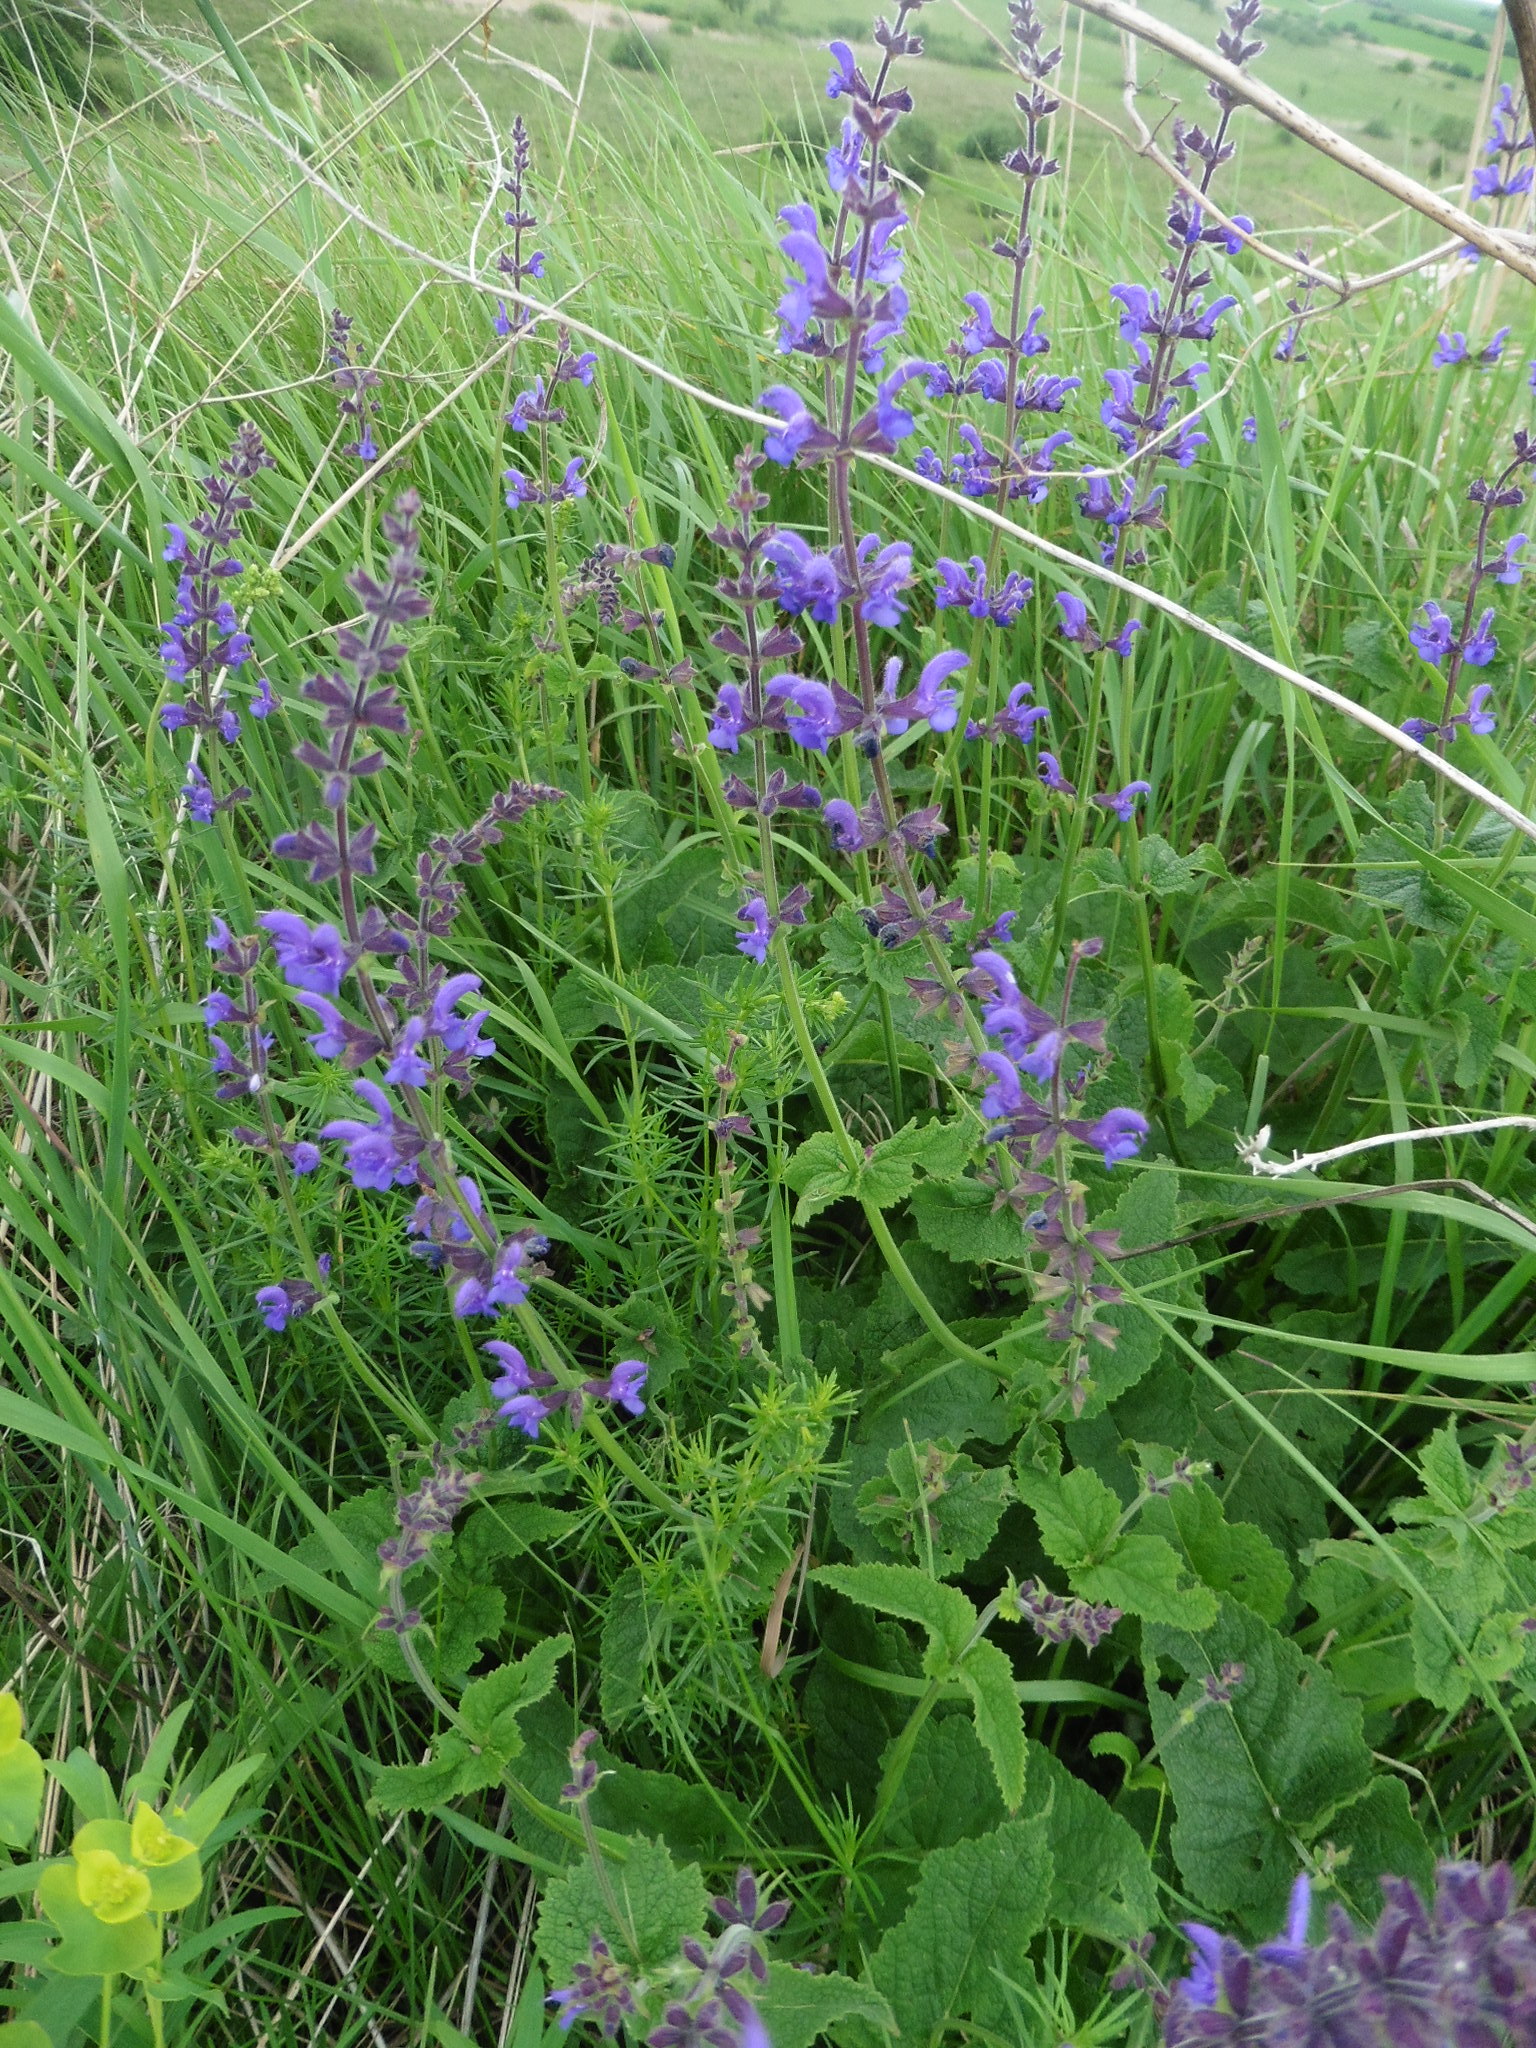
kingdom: Plantae
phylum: Tracheophyta
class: Magnoliopsida
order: Lamiales
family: Lamiaceae
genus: Salvia
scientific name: Salvia dumetorum
